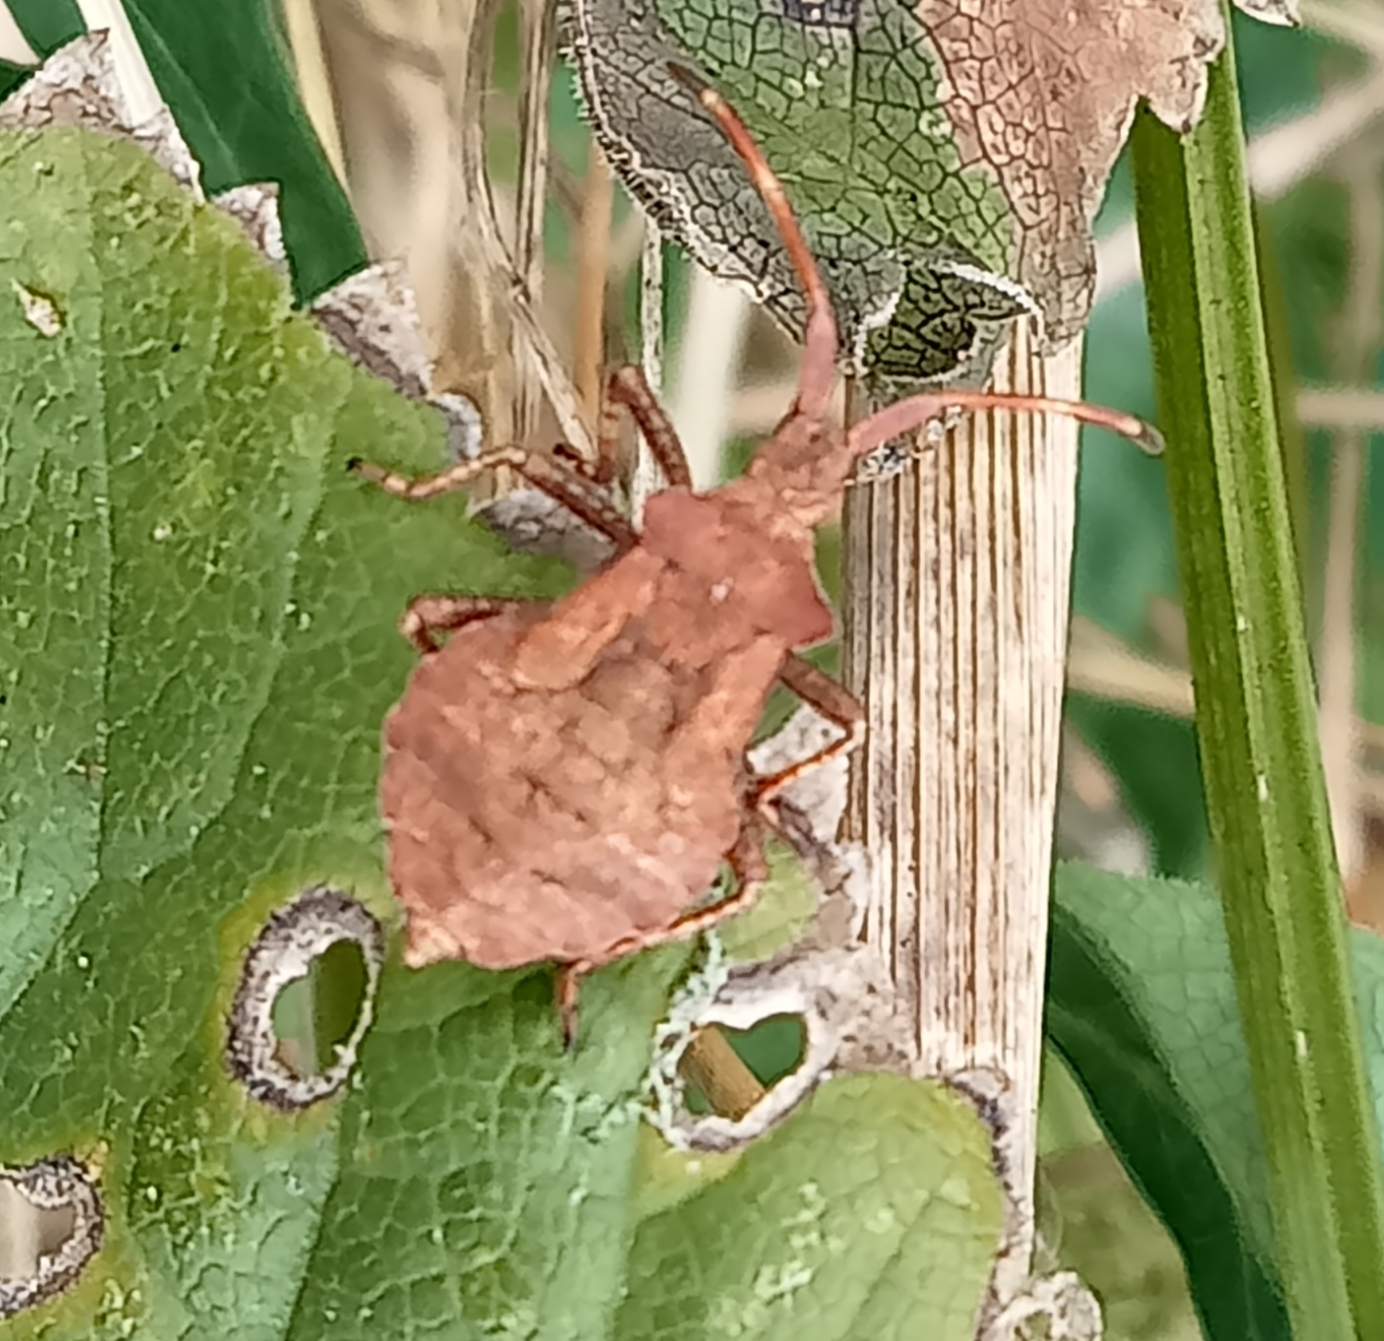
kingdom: Animalia
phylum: Arthropoda
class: Insecta
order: Hemiptera
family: Coreidae
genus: Coreus
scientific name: Coreus marginatus
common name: Dock bug
